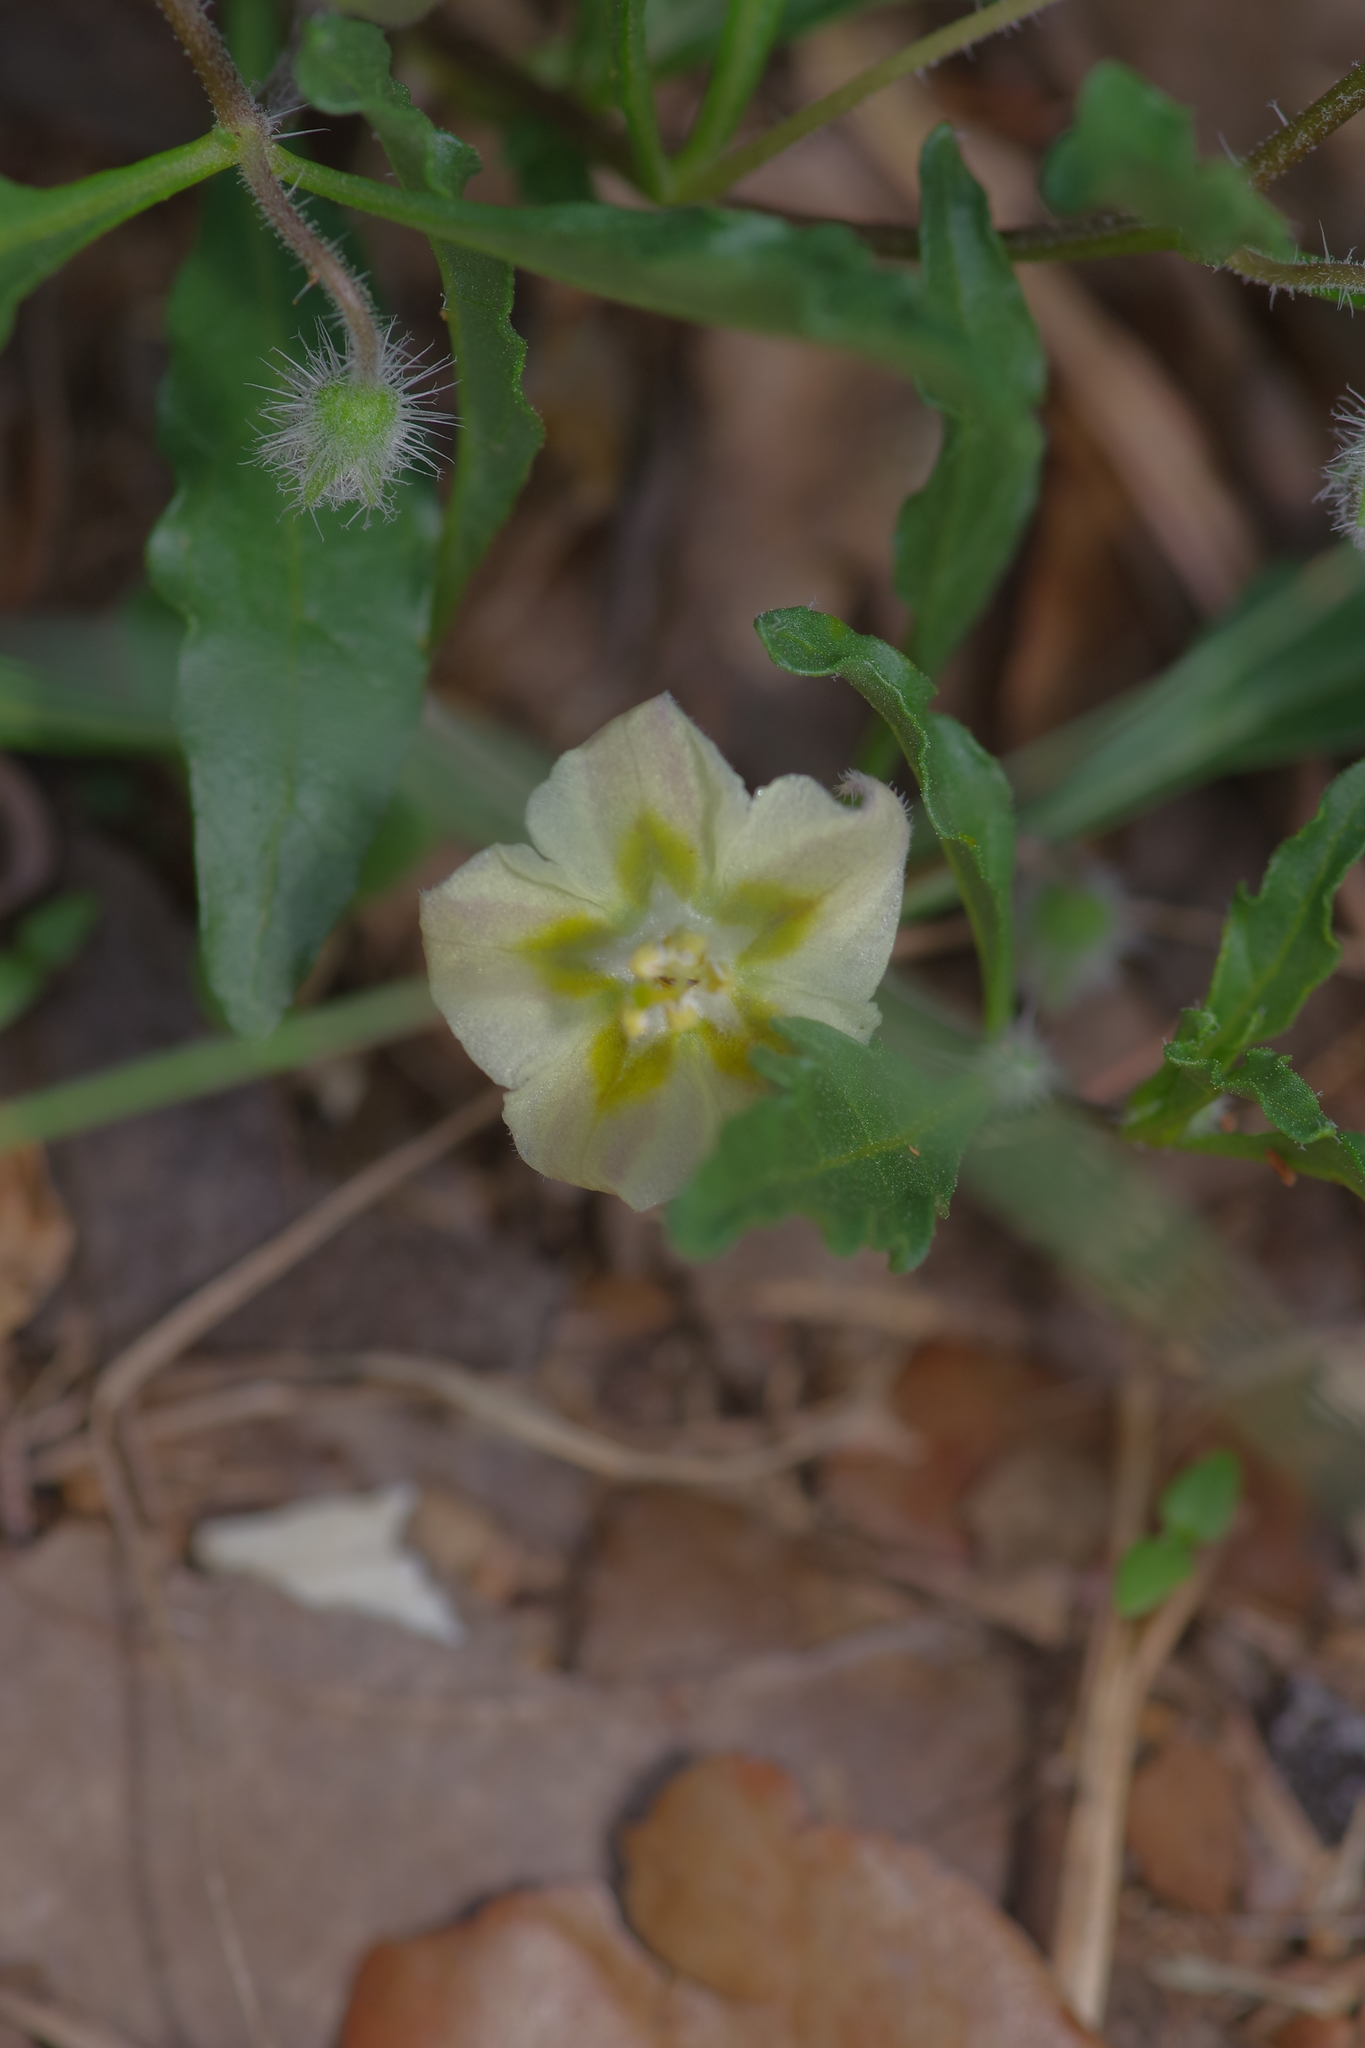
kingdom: Plantae
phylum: Tracheophyta
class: Magnoliopsida
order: Solanales
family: Solanaceae
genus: Chamaesaracha
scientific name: Chamaesaracha edwardsiana
